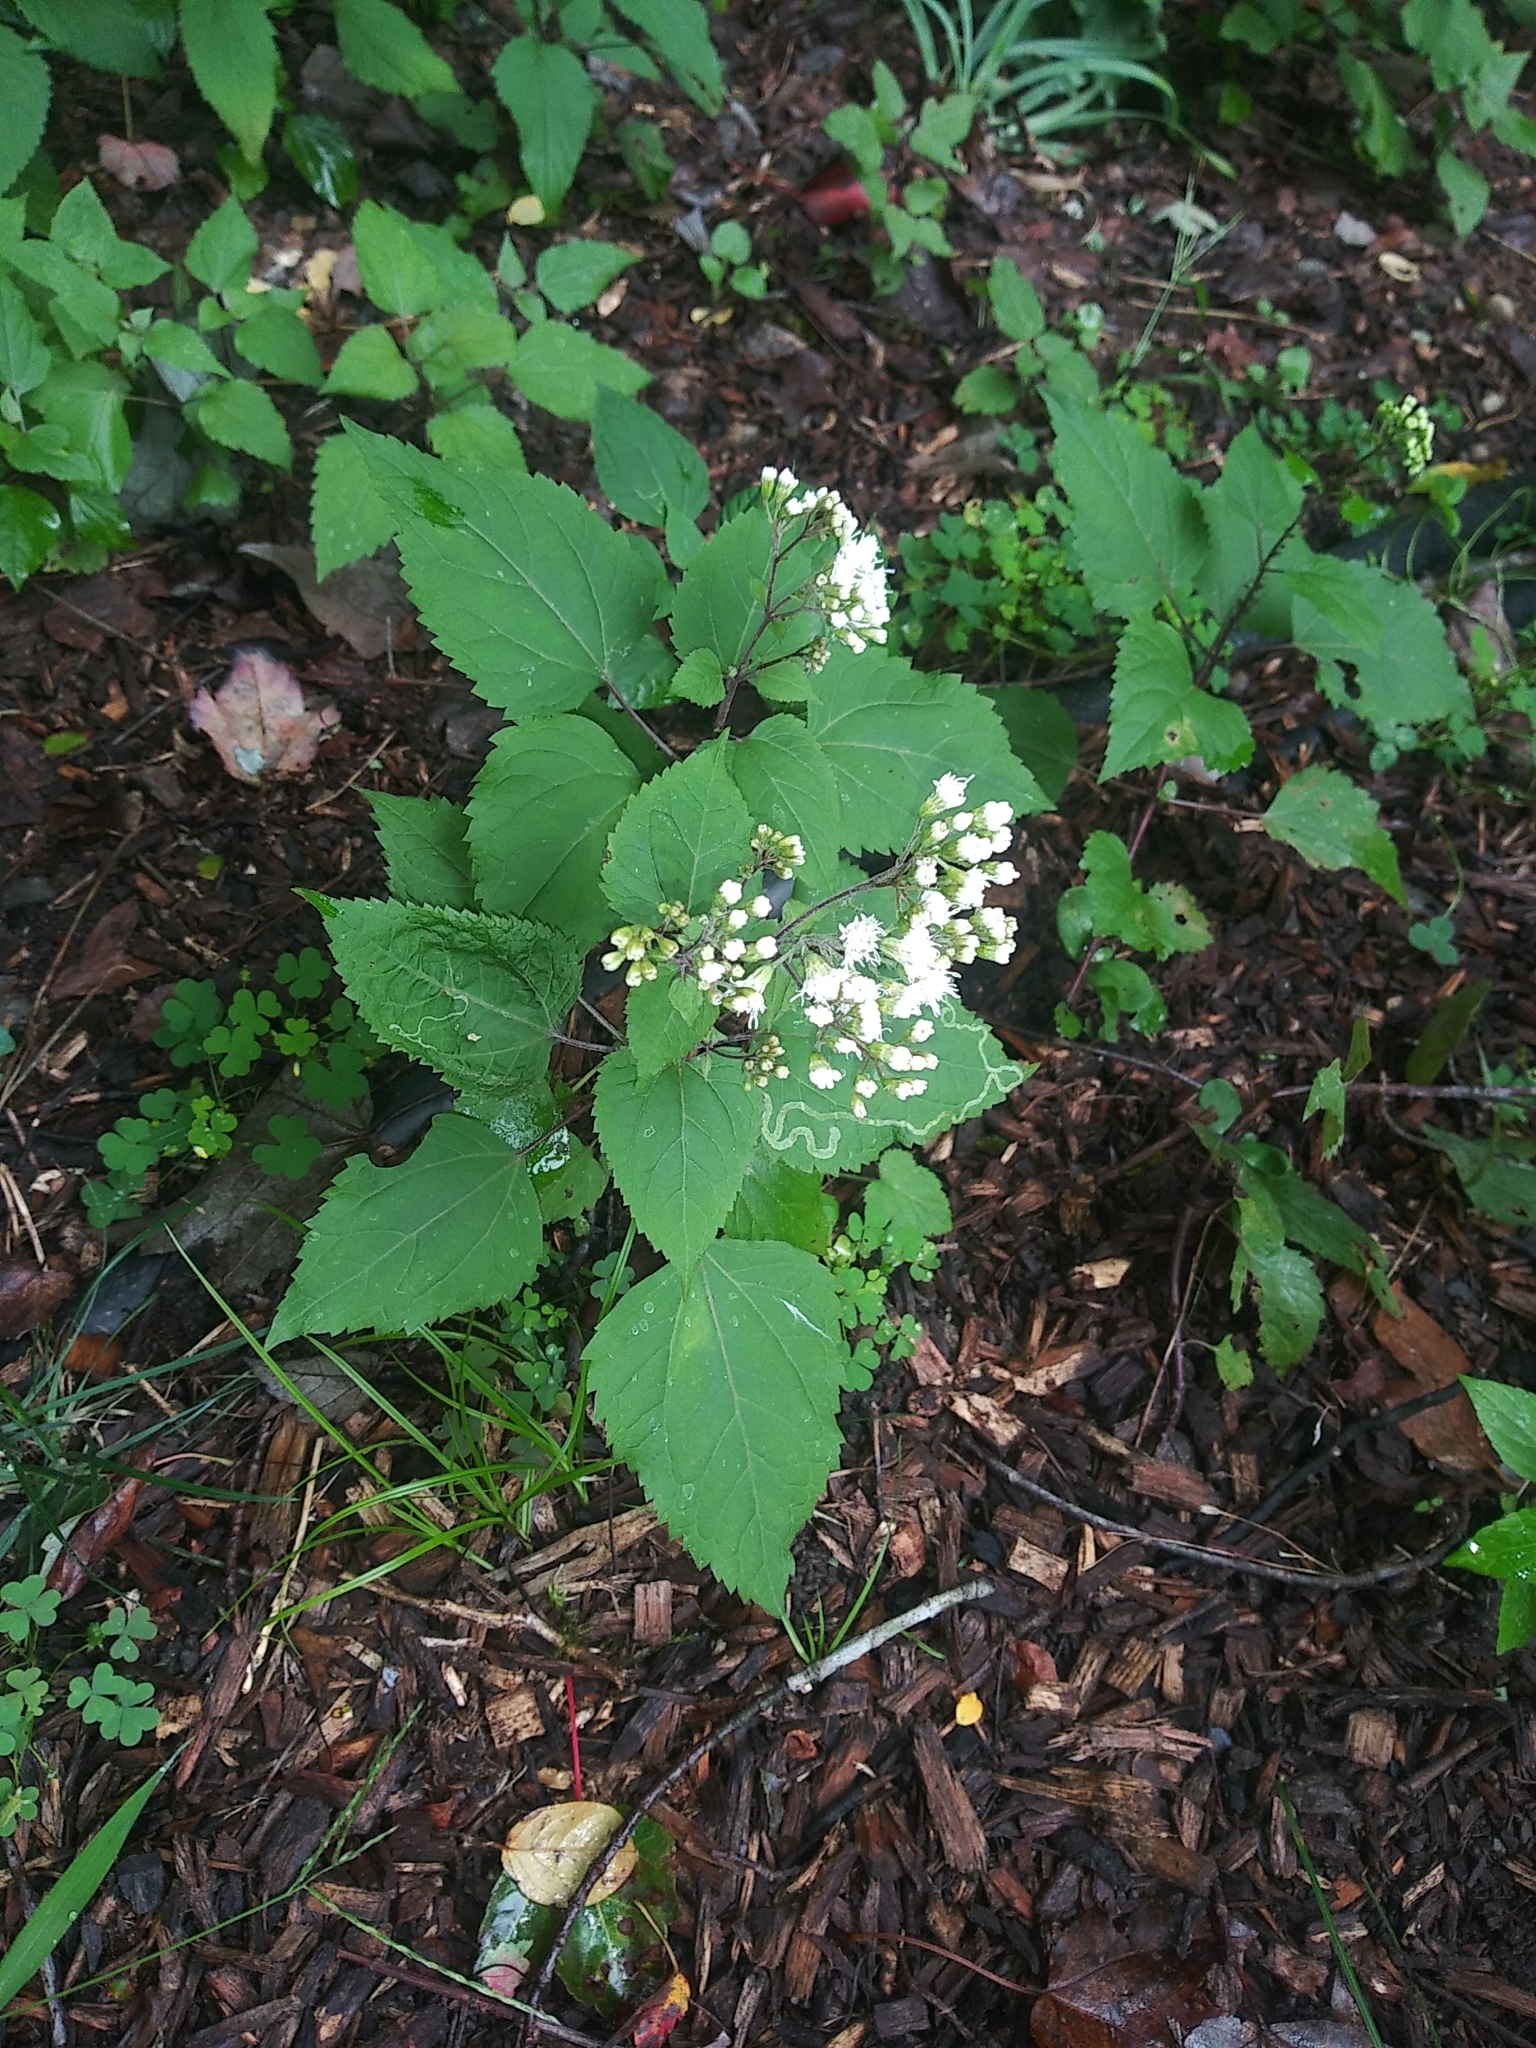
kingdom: Plantae
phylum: Tracheophyta
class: Magnoliopsida
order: Asterales
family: Asteraceae
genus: Ageratina
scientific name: Ageratina altissima
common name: White snakeroot
